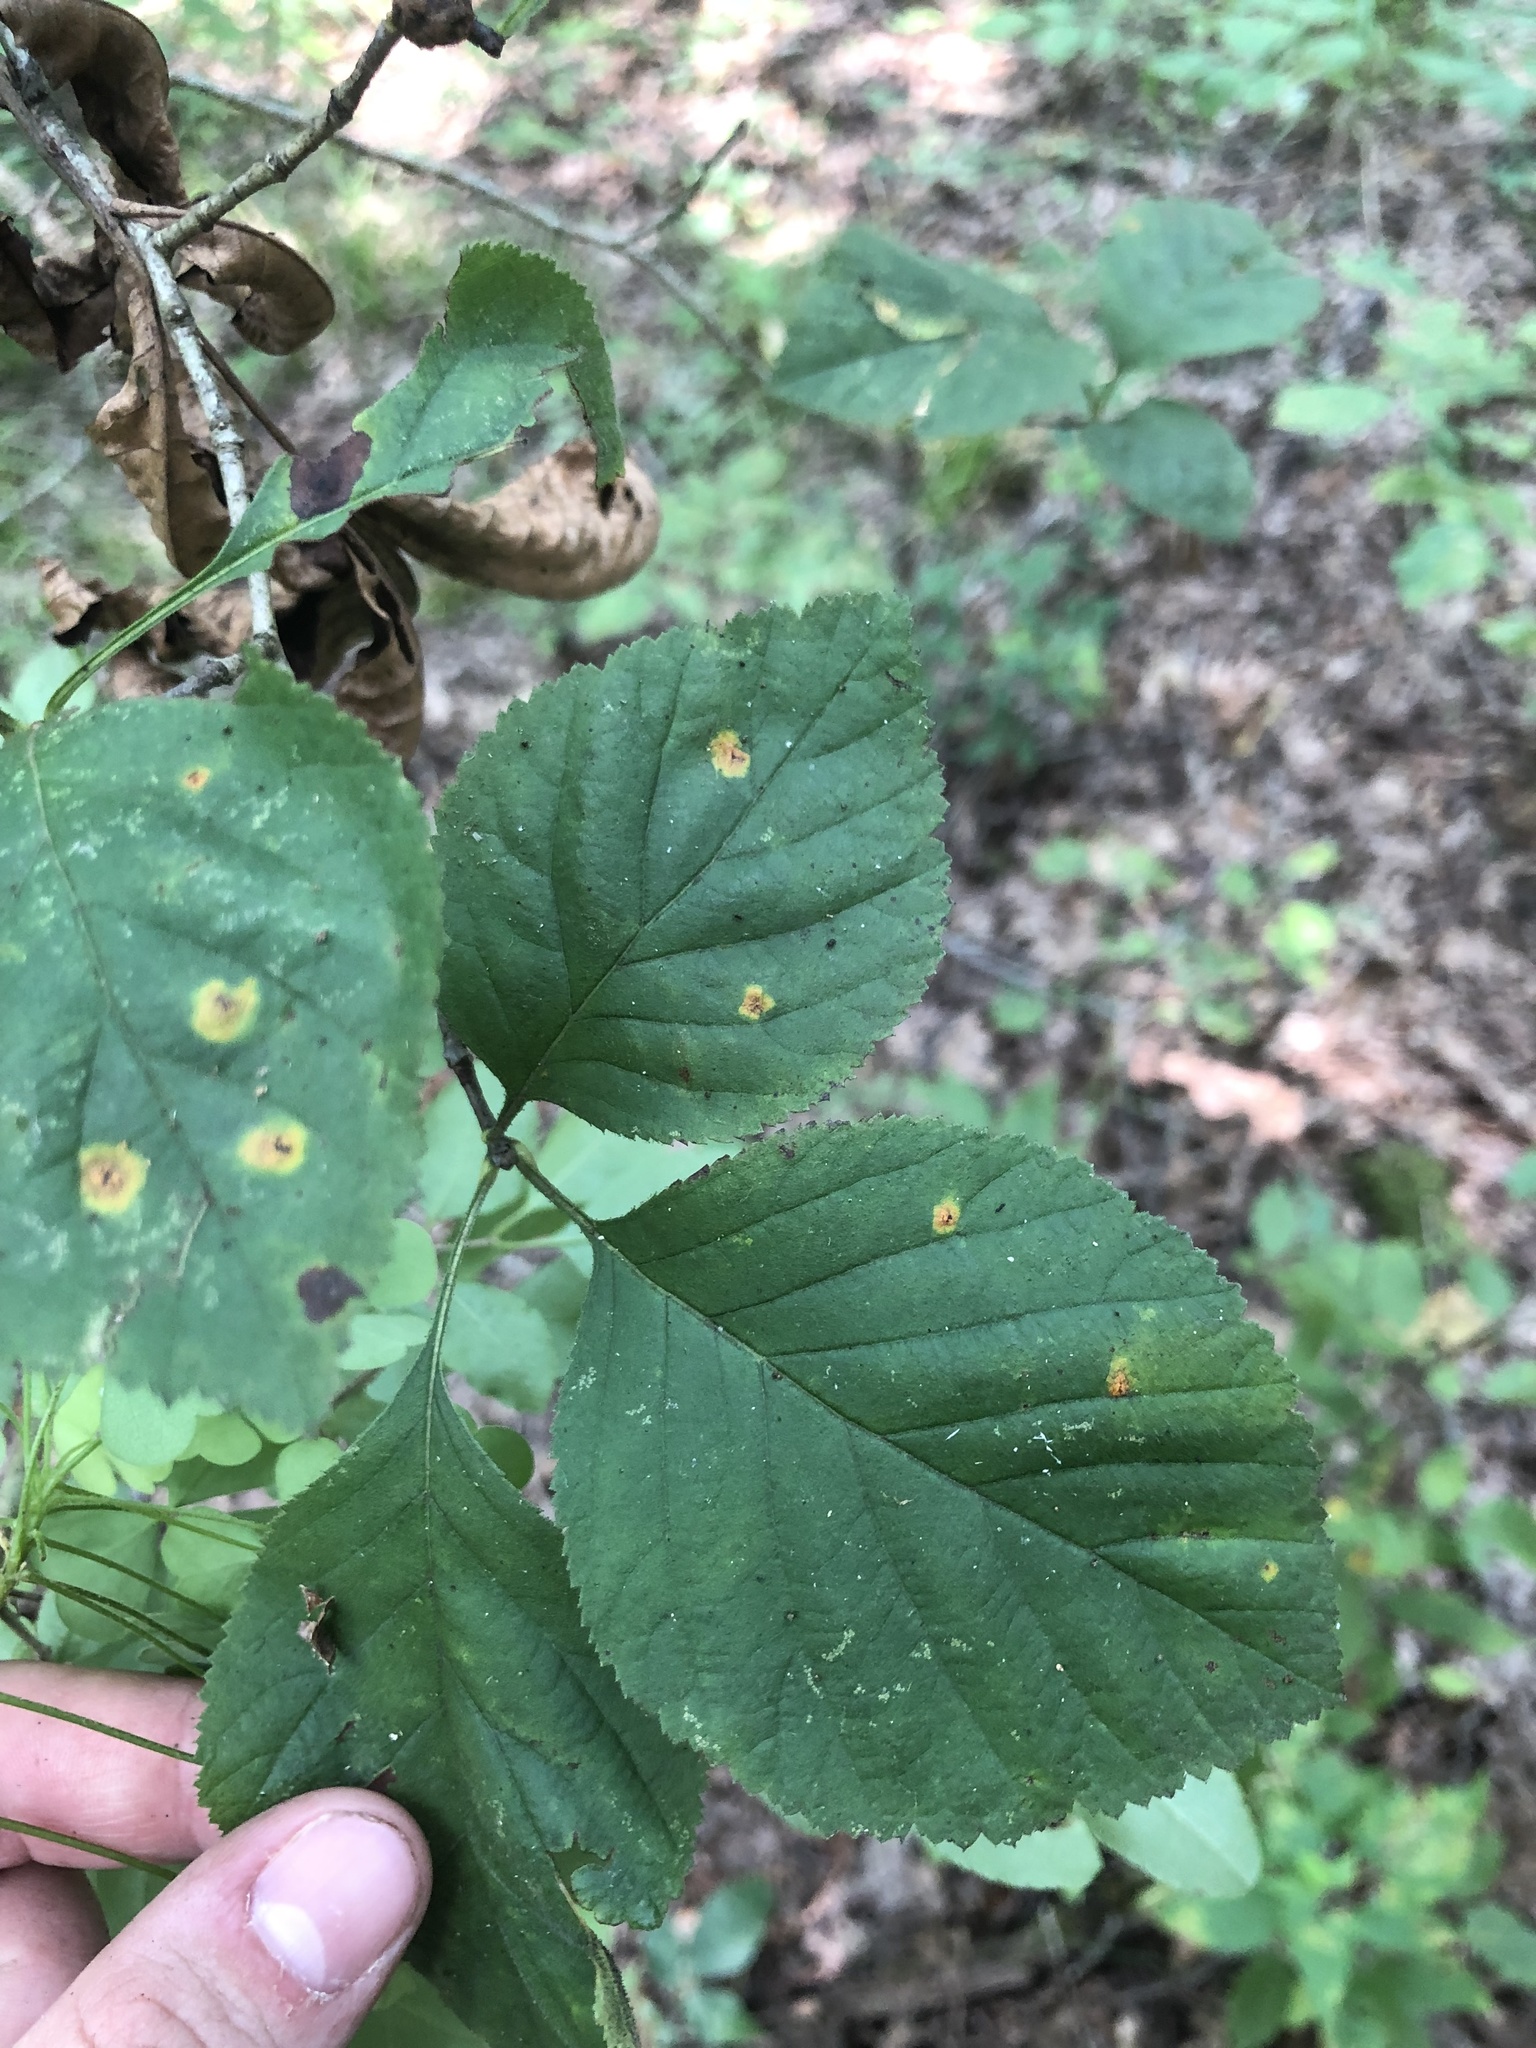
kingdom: Plantae
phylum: Tracheophyta
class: Magnoliopsida
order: Rosales
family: Rosaceae
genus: Crataegus
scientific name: Crataegus triflora
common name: Three-flower hawthorn
